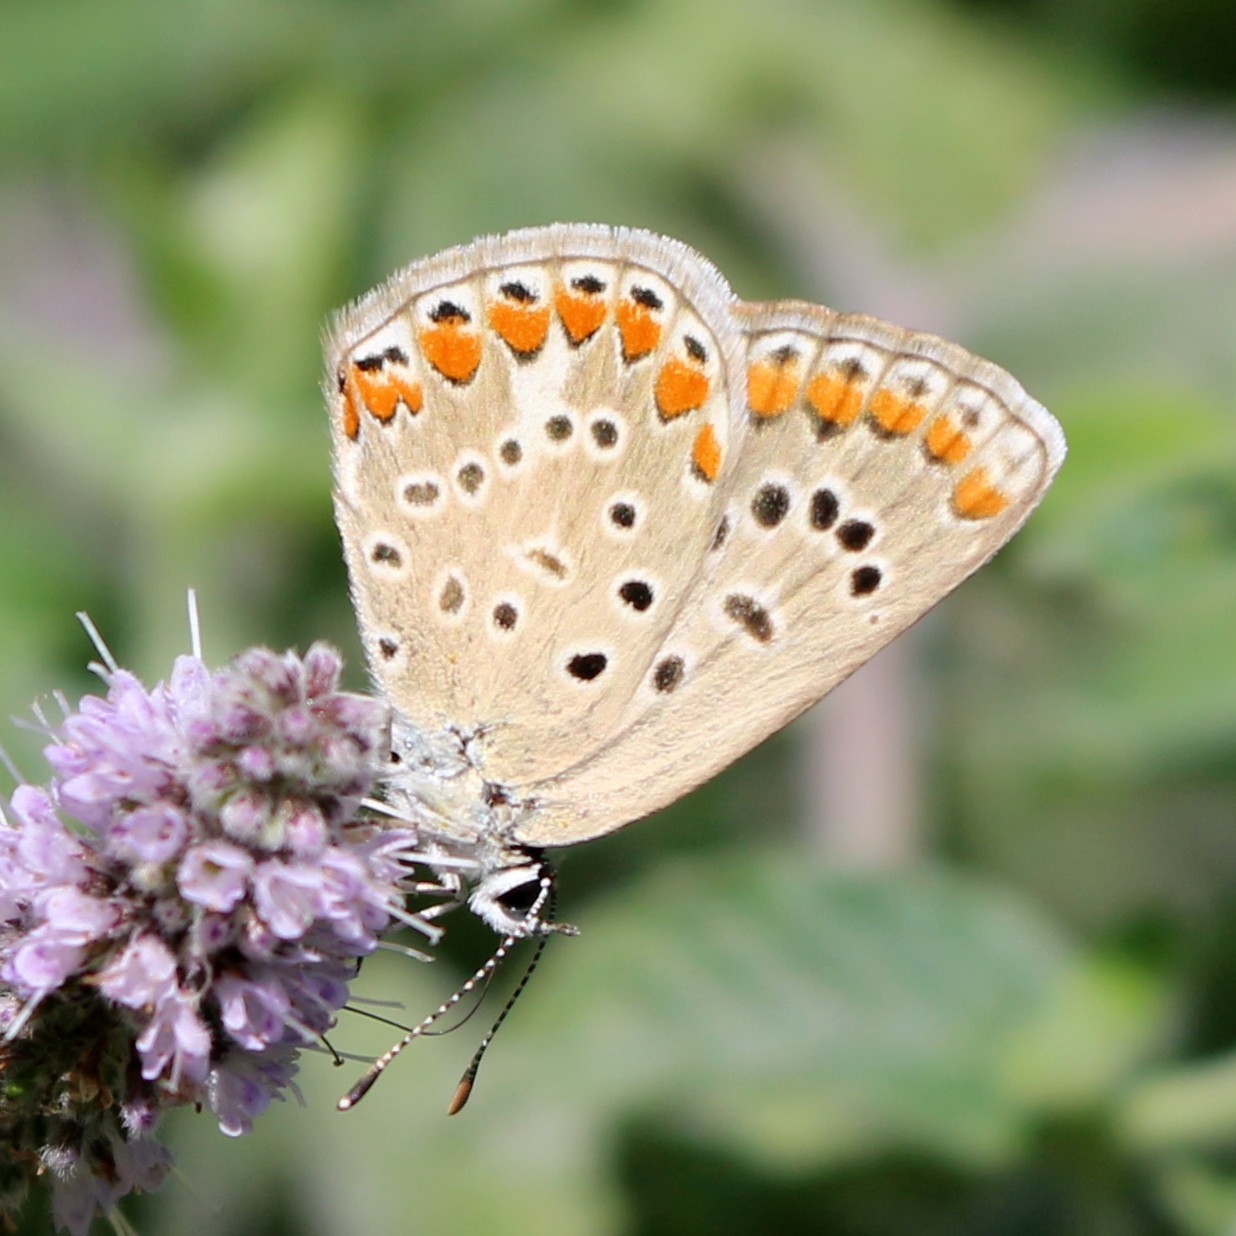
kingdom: Animalia
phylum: Arthropoda
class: Insecta
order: Lepidoptera
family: Lycaenidae
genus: Polyommatus
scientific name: Polyommatus icarus
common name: Common blue
